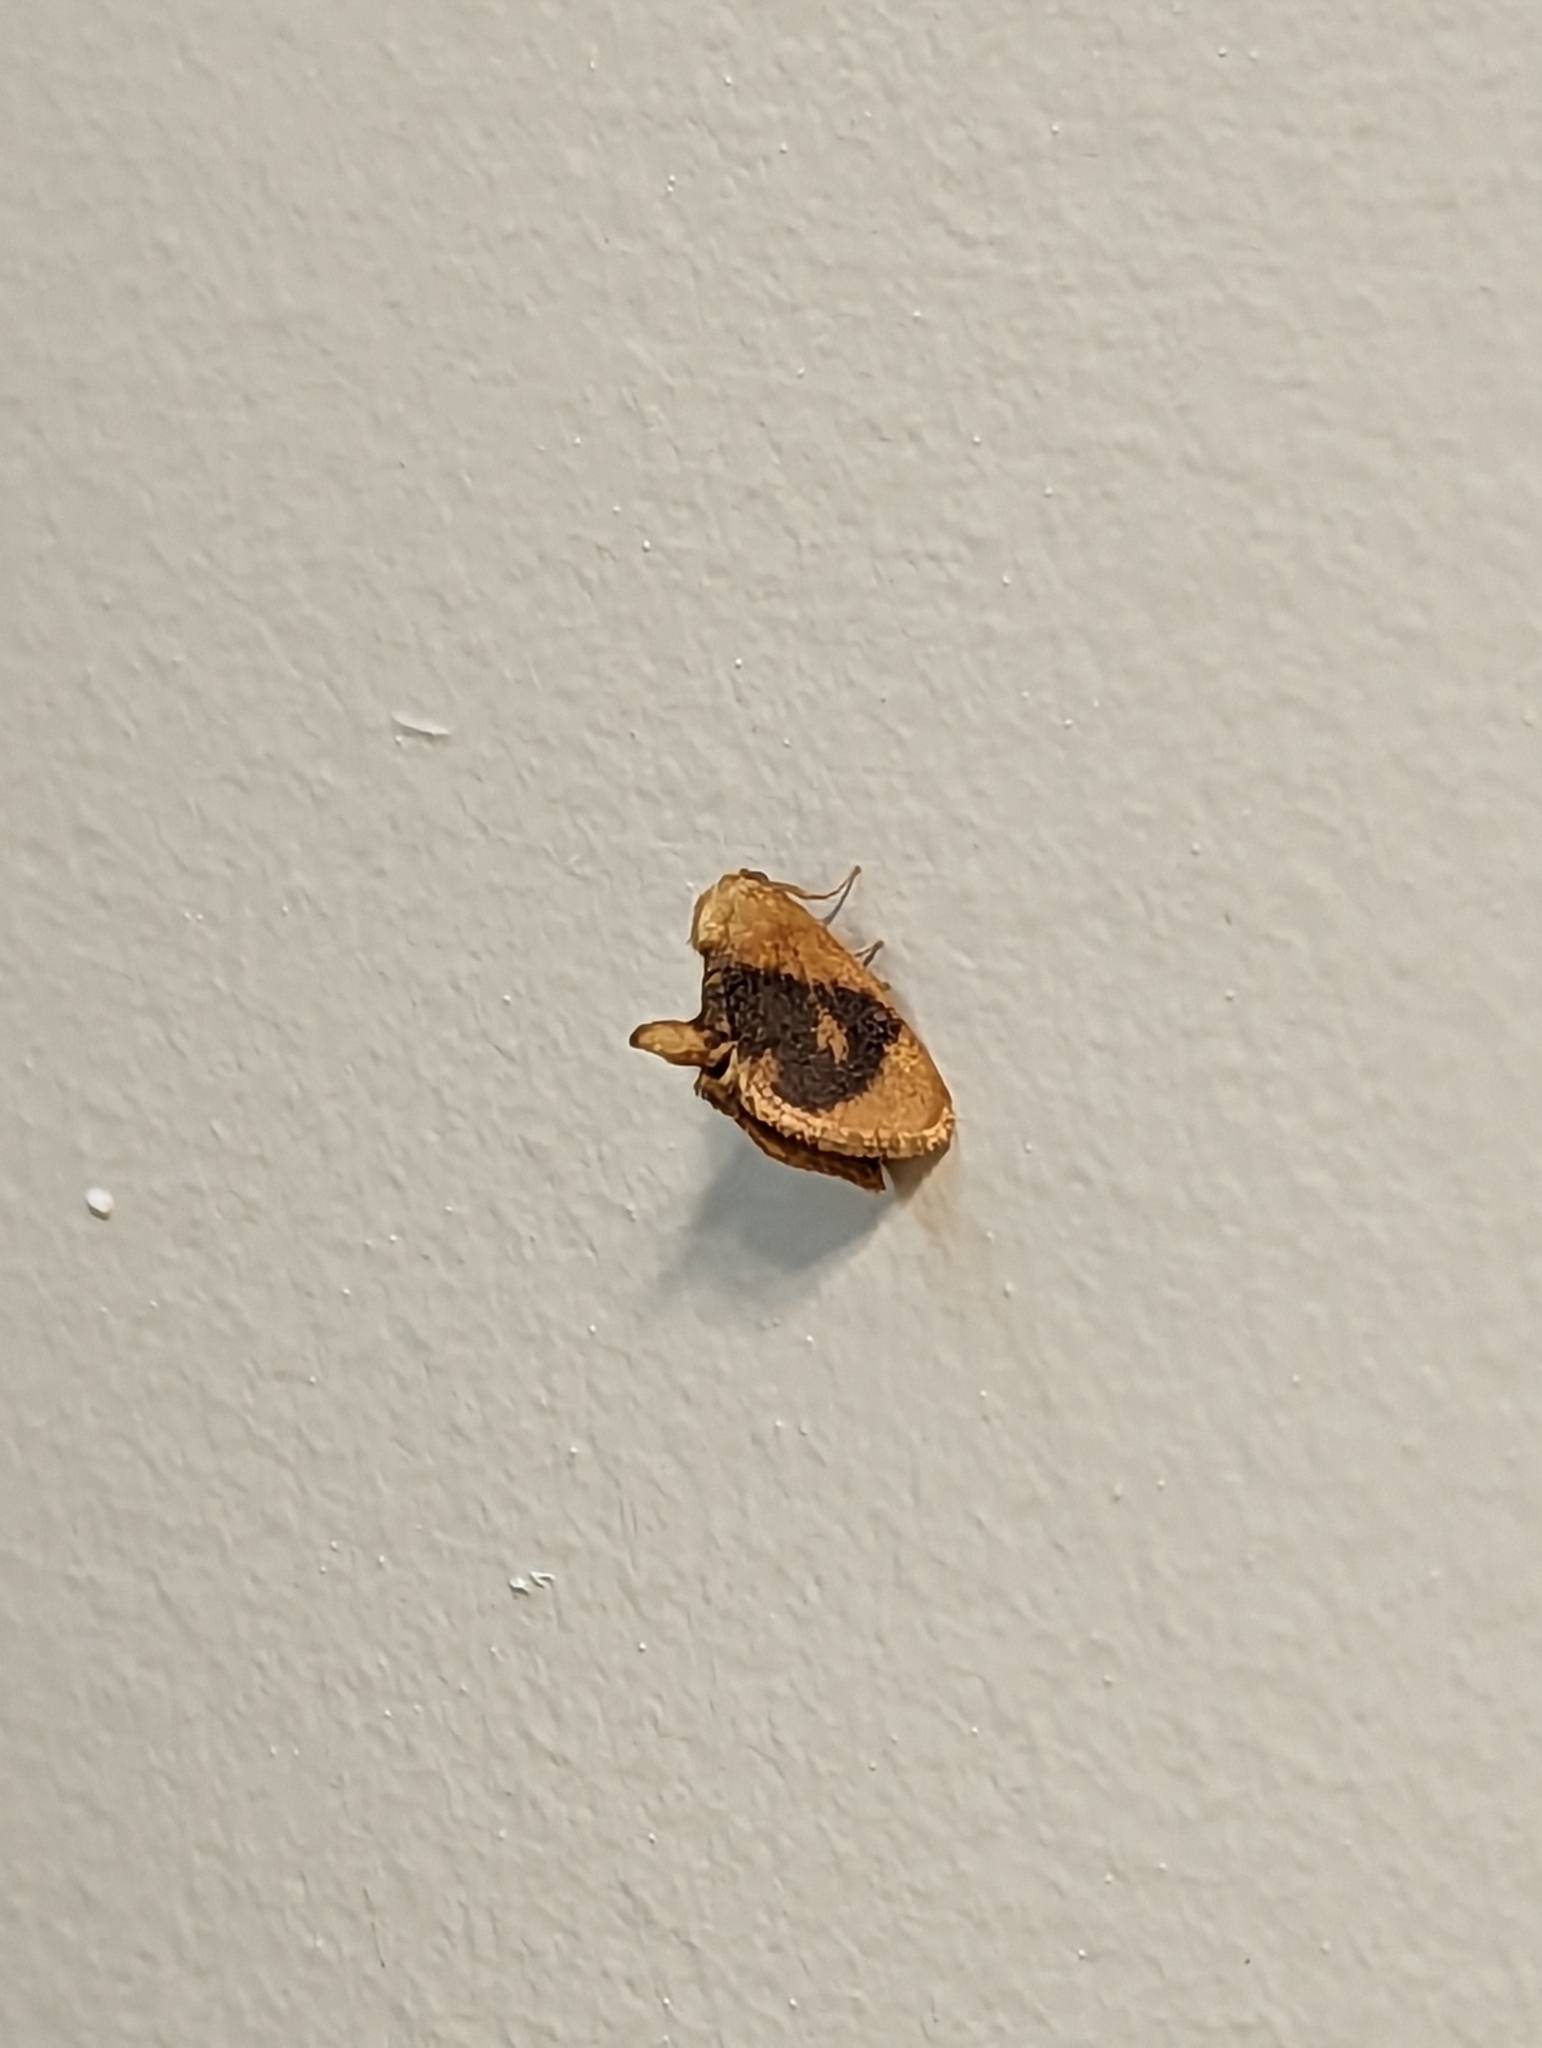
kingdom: Animalia
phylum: Arthropoda
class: Insecta
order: Lepidoptera
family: Limacodidae
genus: Tortricidia
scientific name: Tortricidia flexuosa
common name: Abbreviated button slug moth
